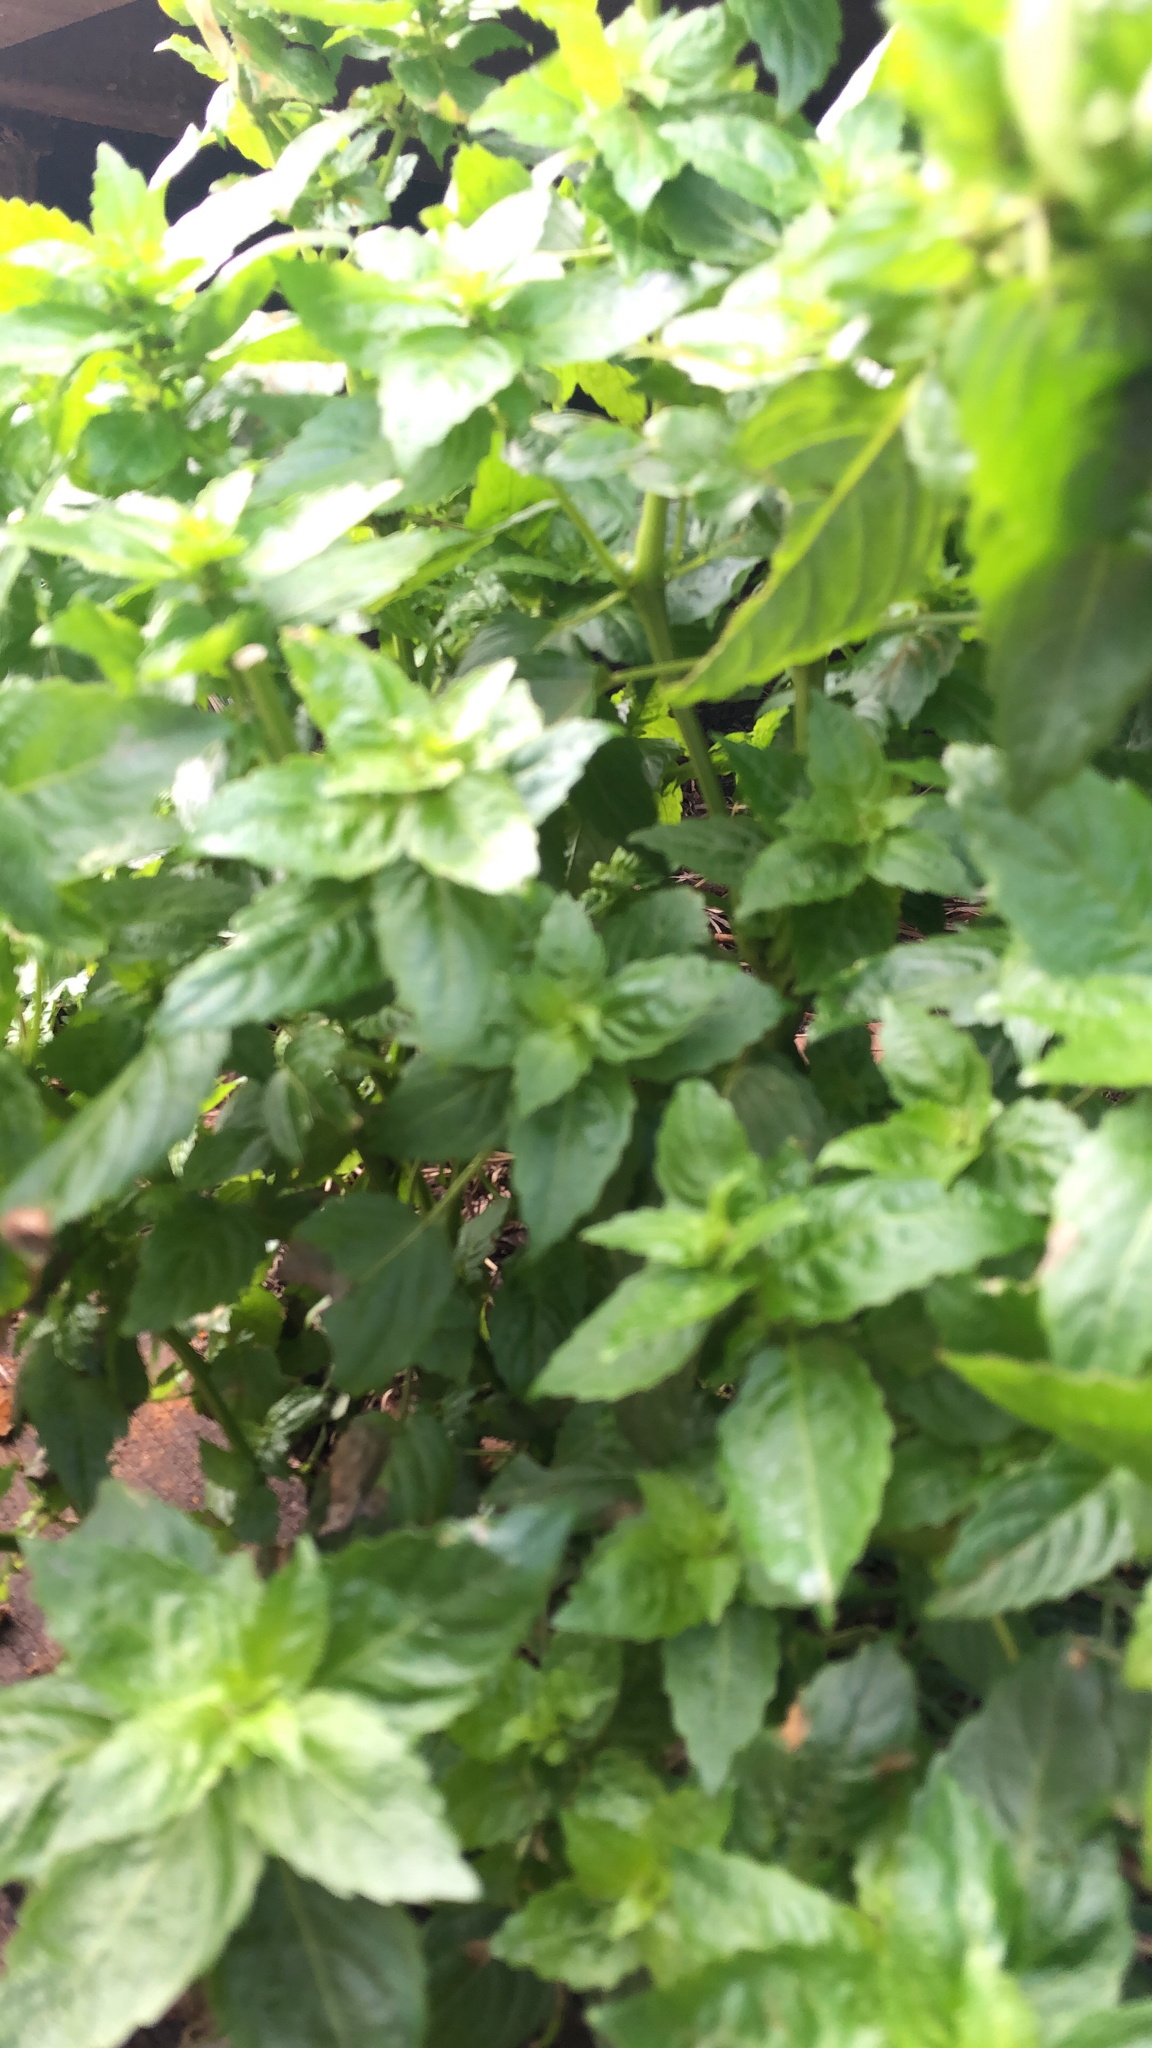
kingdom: Plantae
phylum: Tracheophyta
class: Magnoliopsida
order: Malpighiales
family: Euphorbiaceae
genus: Mercurialis
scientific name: Mercurialis annua
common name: Annual mercury
